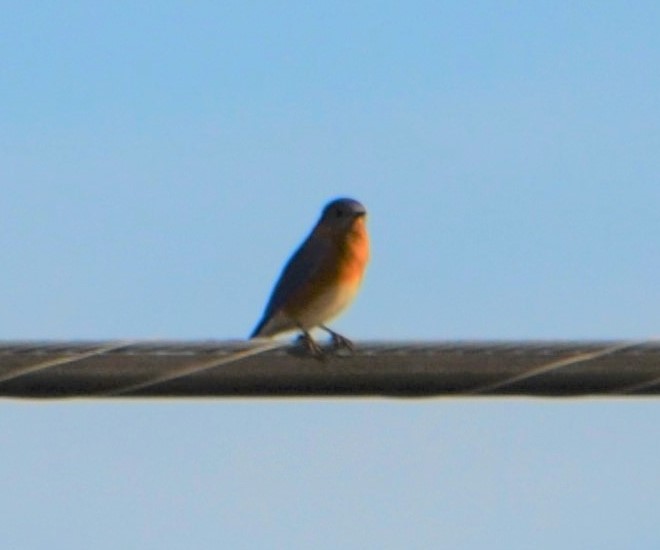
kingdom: Animalia
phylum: Chordata
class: Aves
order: Passeriformes
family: Turdidae
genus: Sialia
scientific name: Sialia sialis
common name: Eastern bluebird
